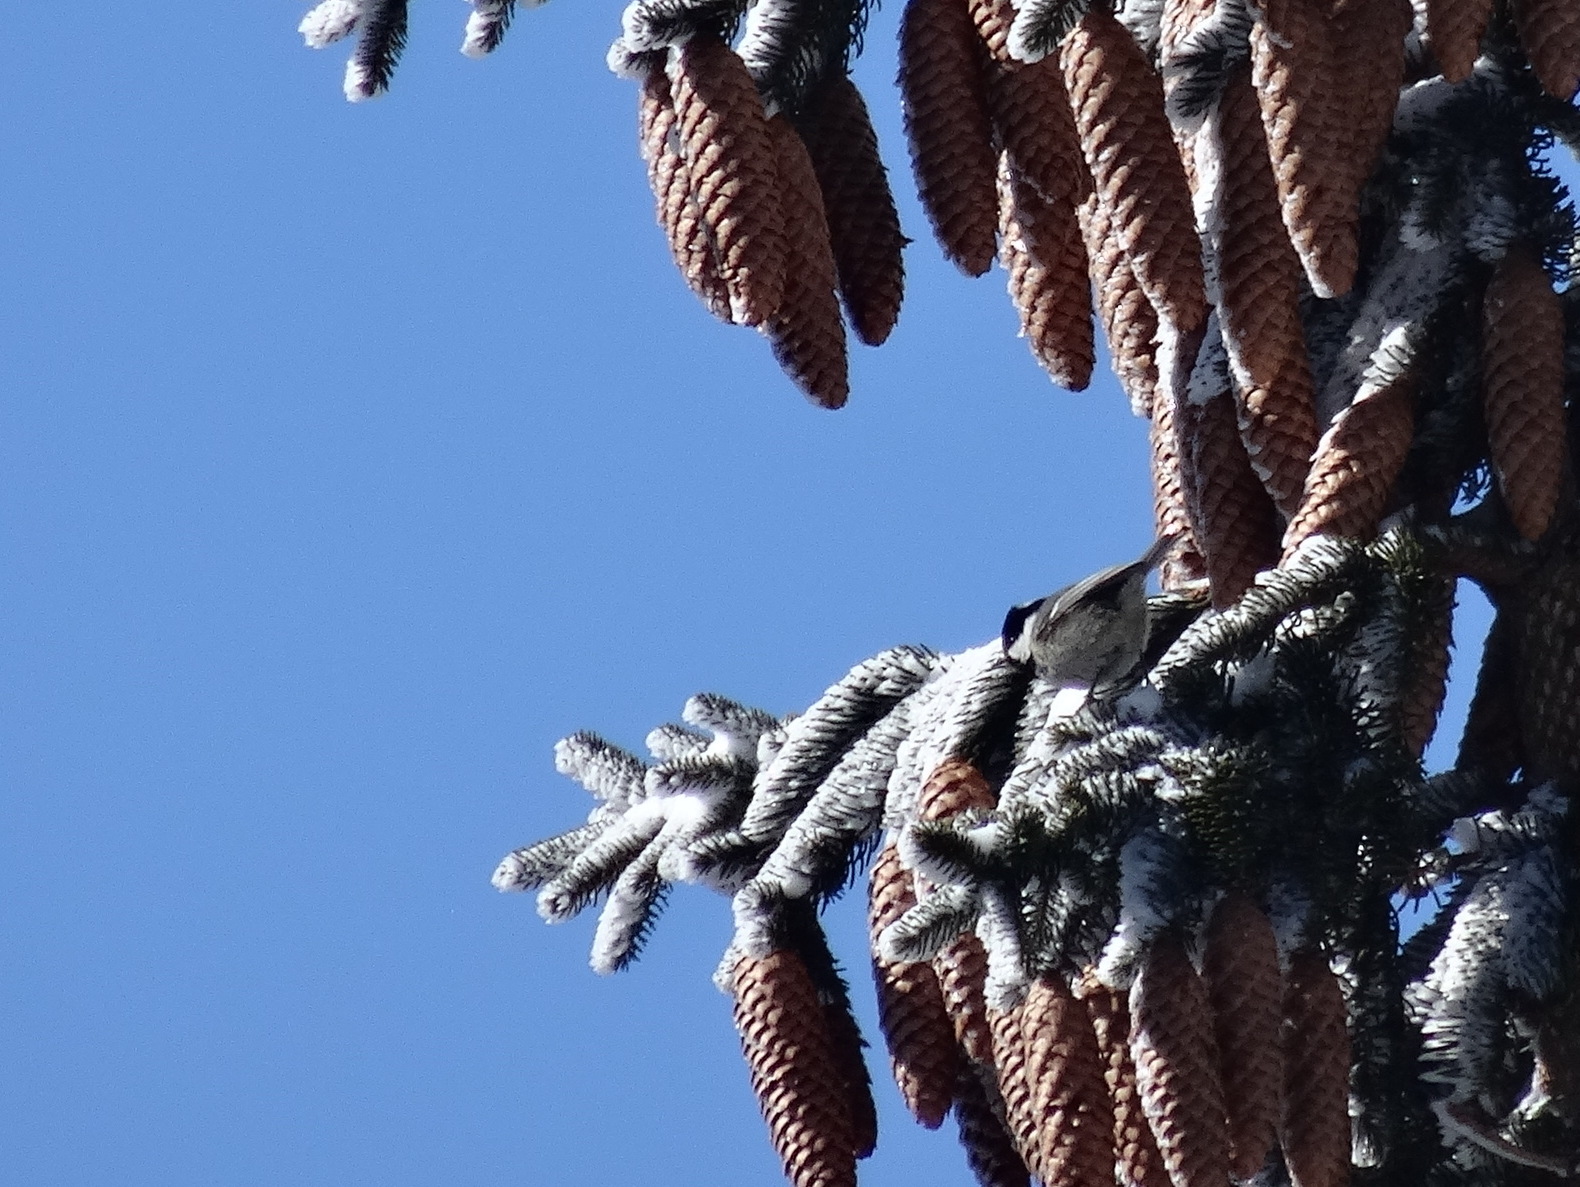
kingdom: Animalia
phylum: Chordata
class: Aves
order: Passeriformes
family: Paridae
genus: Periparus
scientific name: Periparus ater
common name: Coal tit
